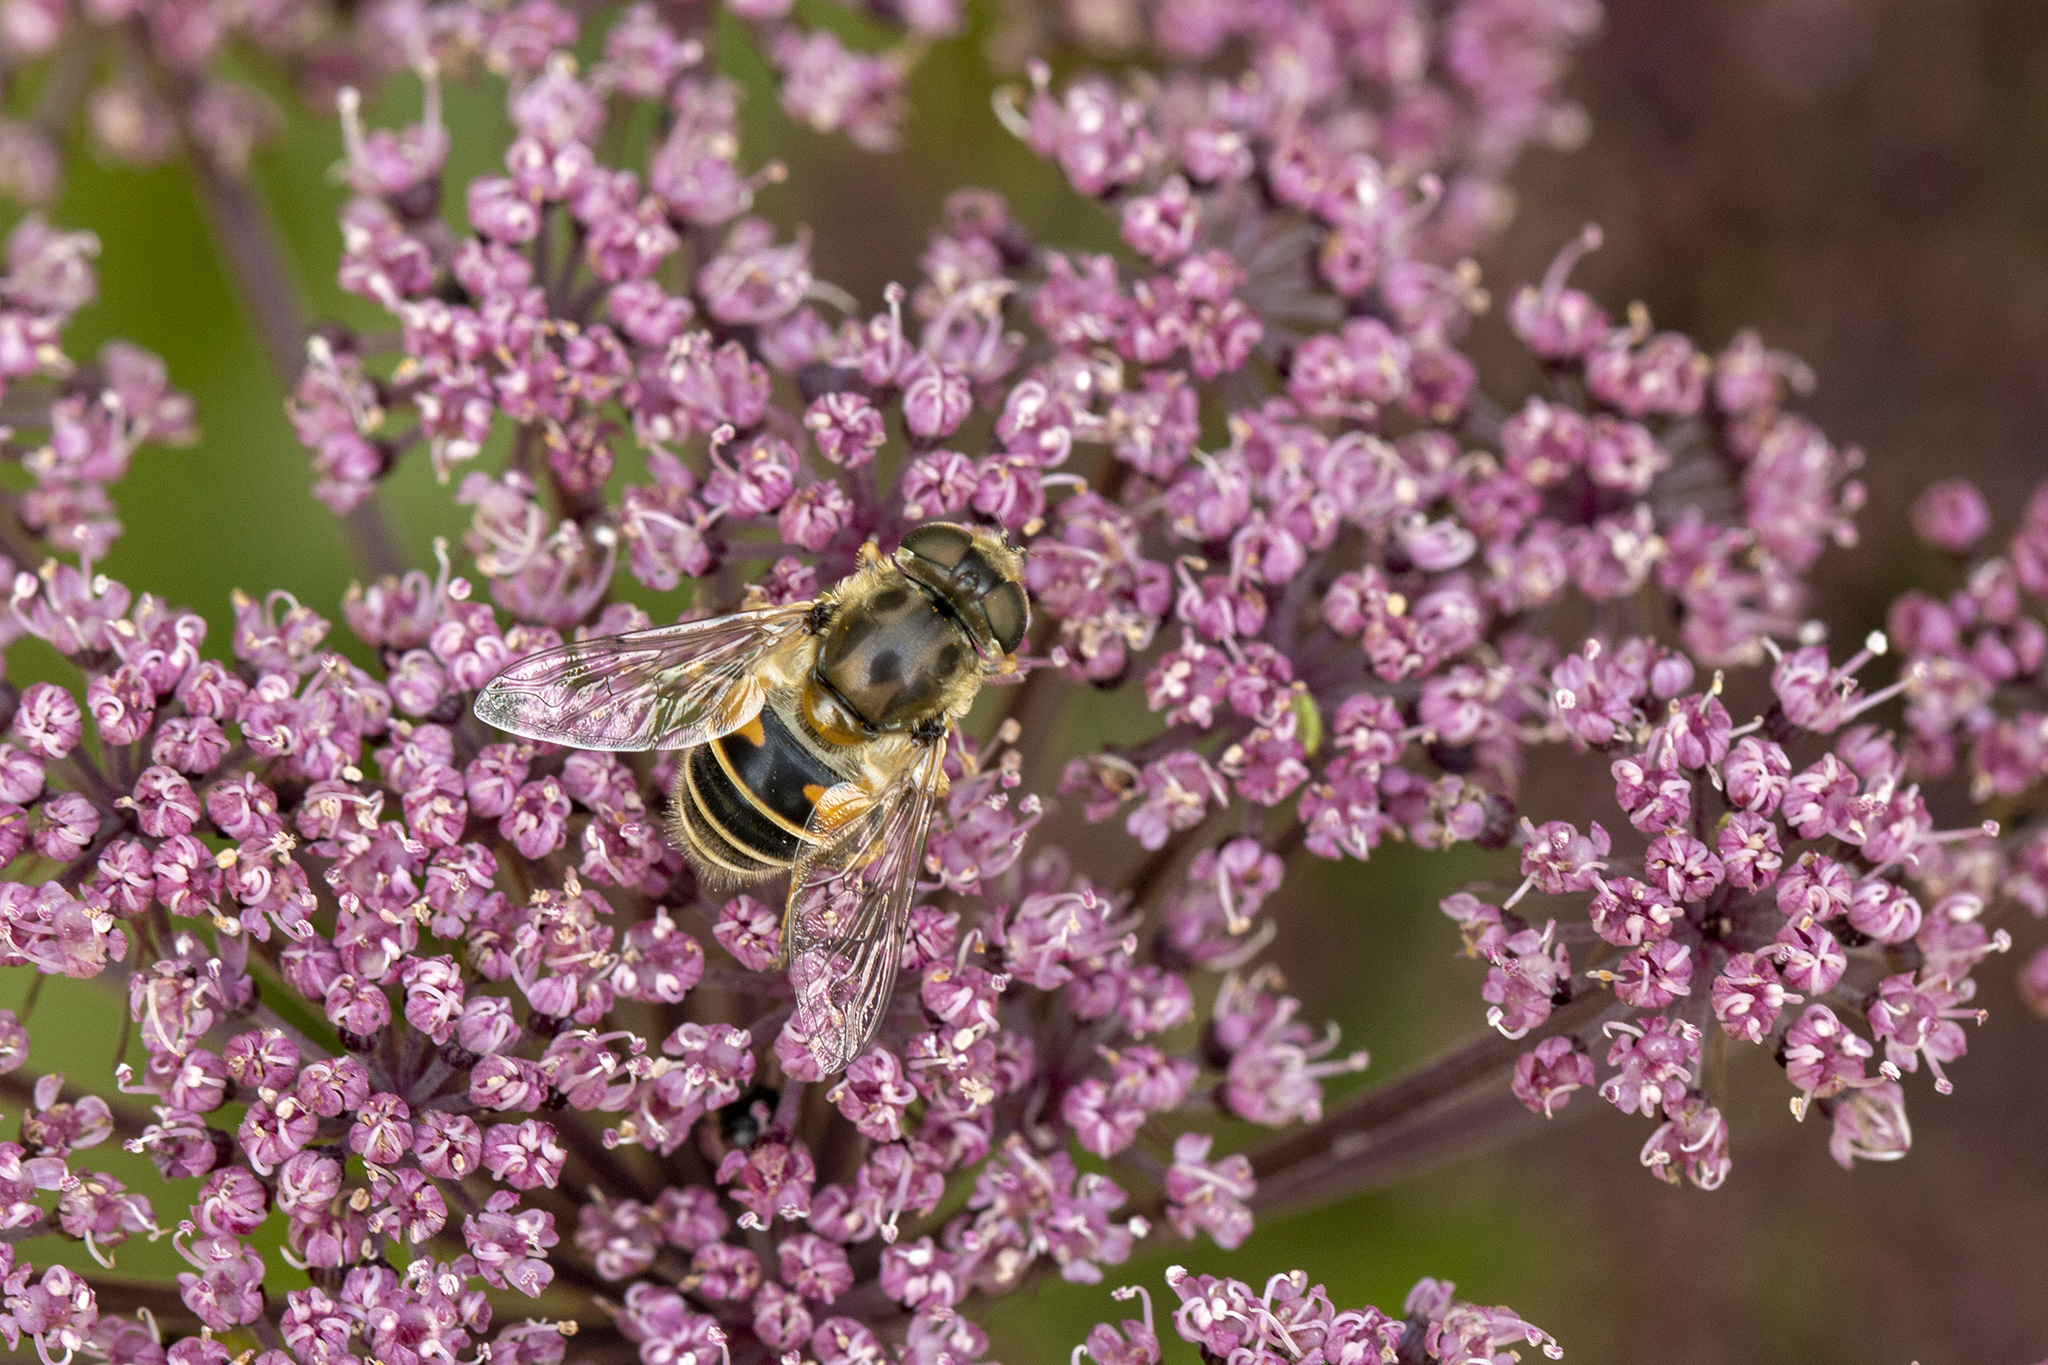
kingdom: Animalia
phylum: Arthropoda
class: Insecta
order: Diptera
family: Syrphidae
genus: Eristalis
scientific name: Eristalis arbustorum
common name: Hover fly
